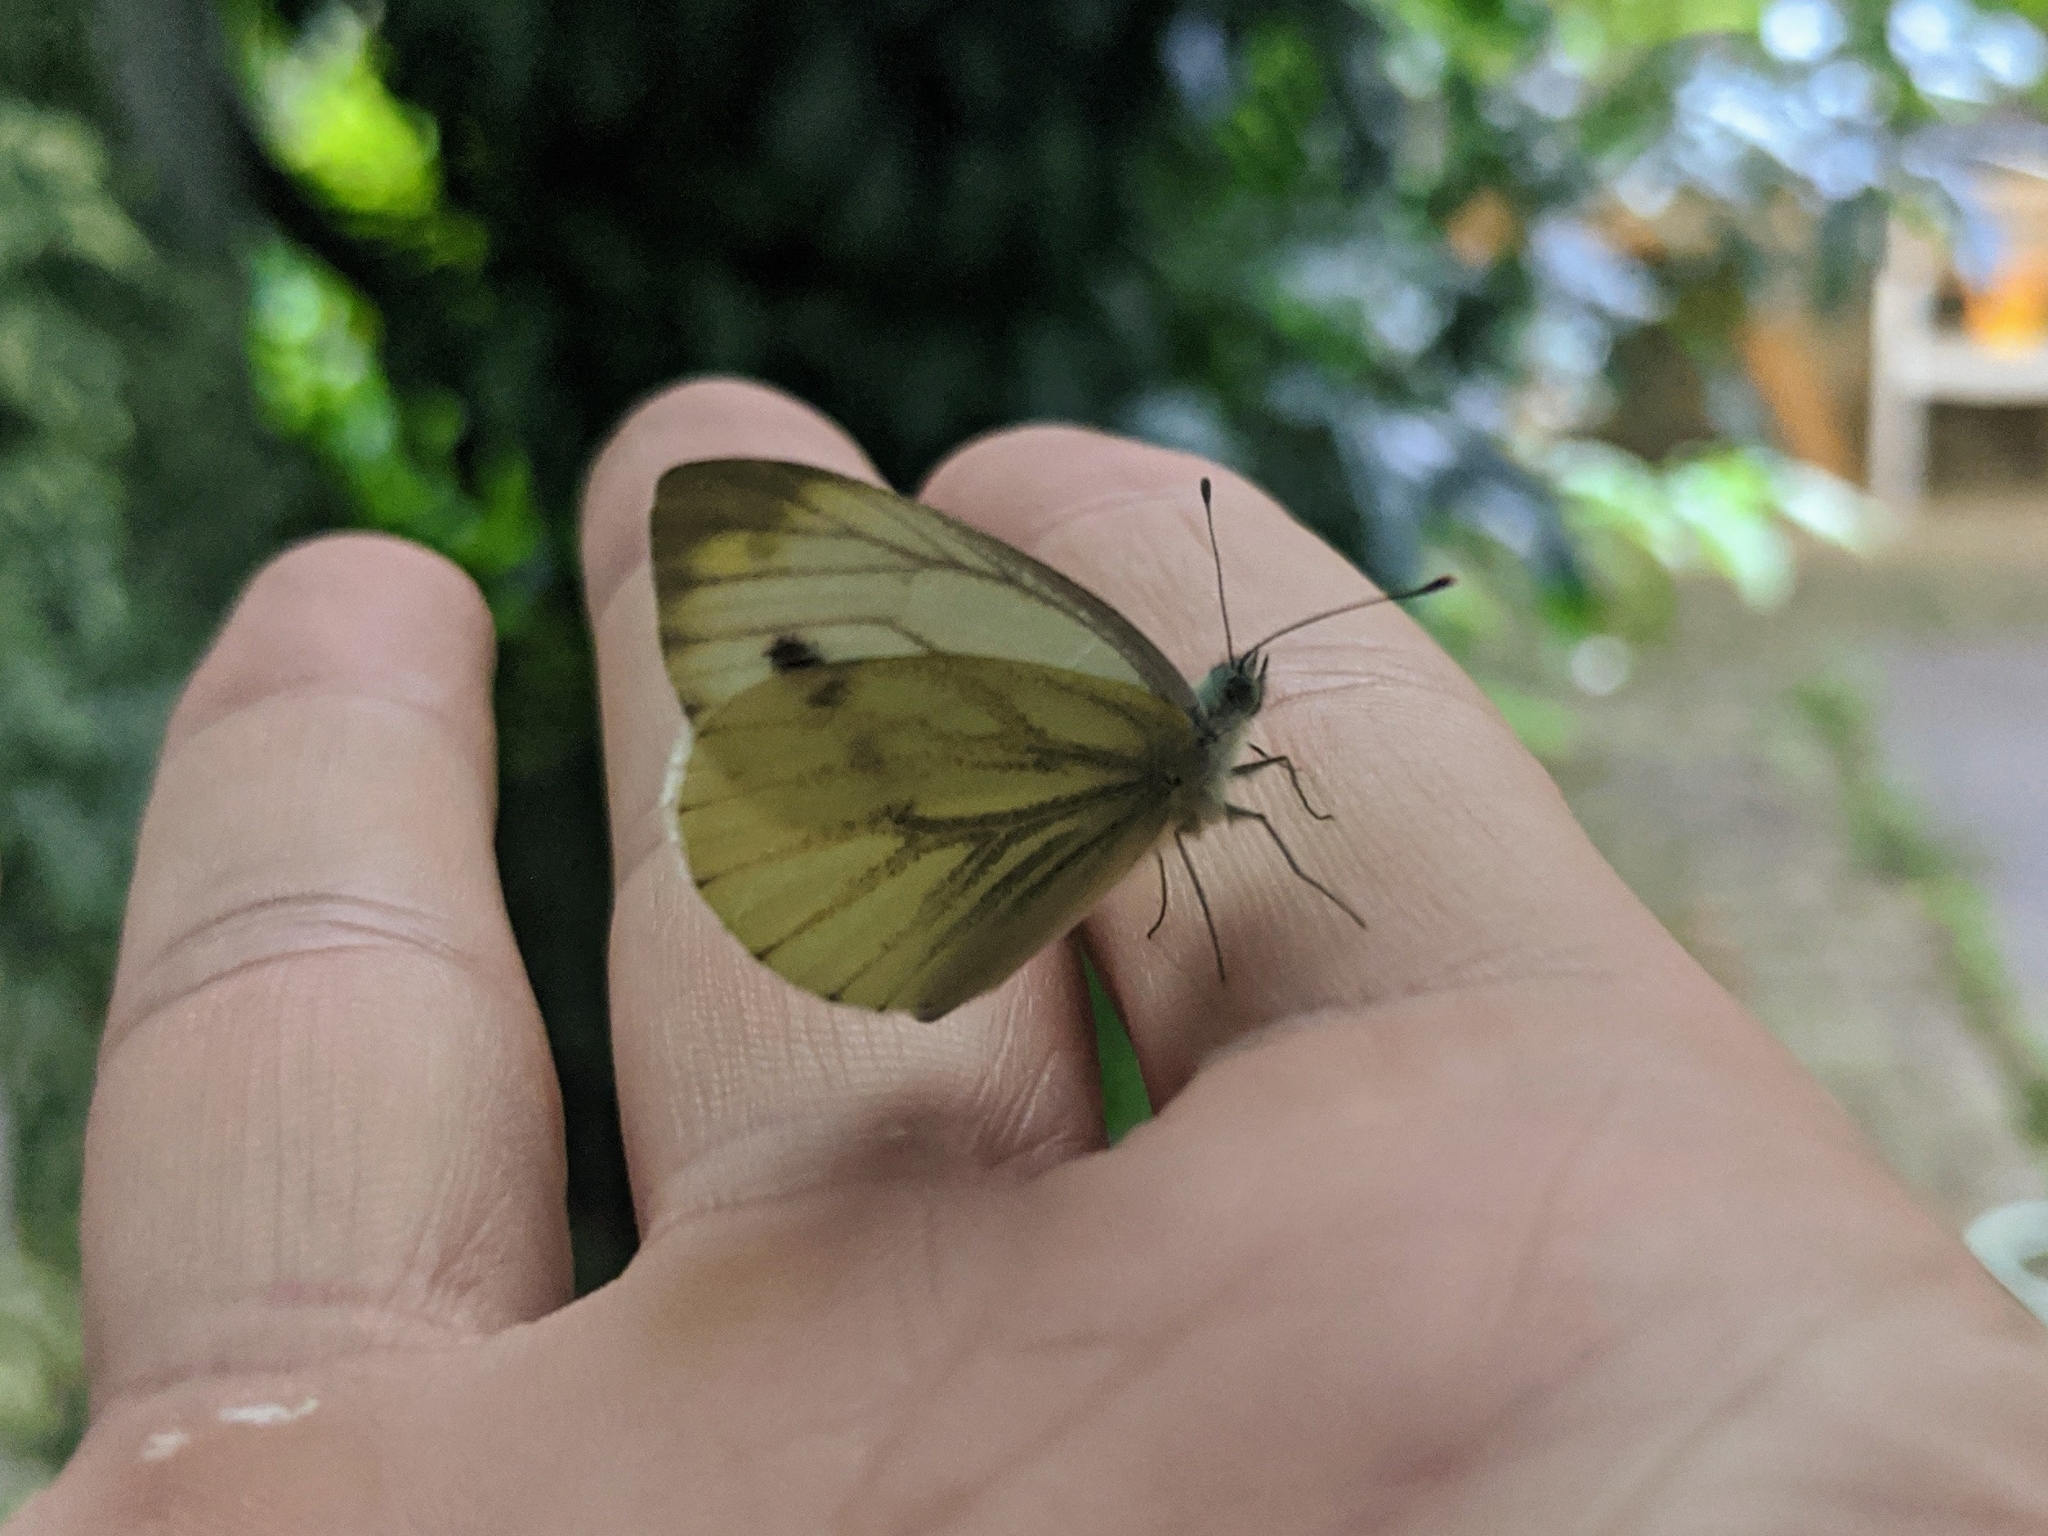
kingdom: Animalia
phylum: Arthropoda
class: Insecta
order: Lepidoptera
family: Pieridae
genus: Pieris
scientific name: Pieris napi
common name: Green-veined white
